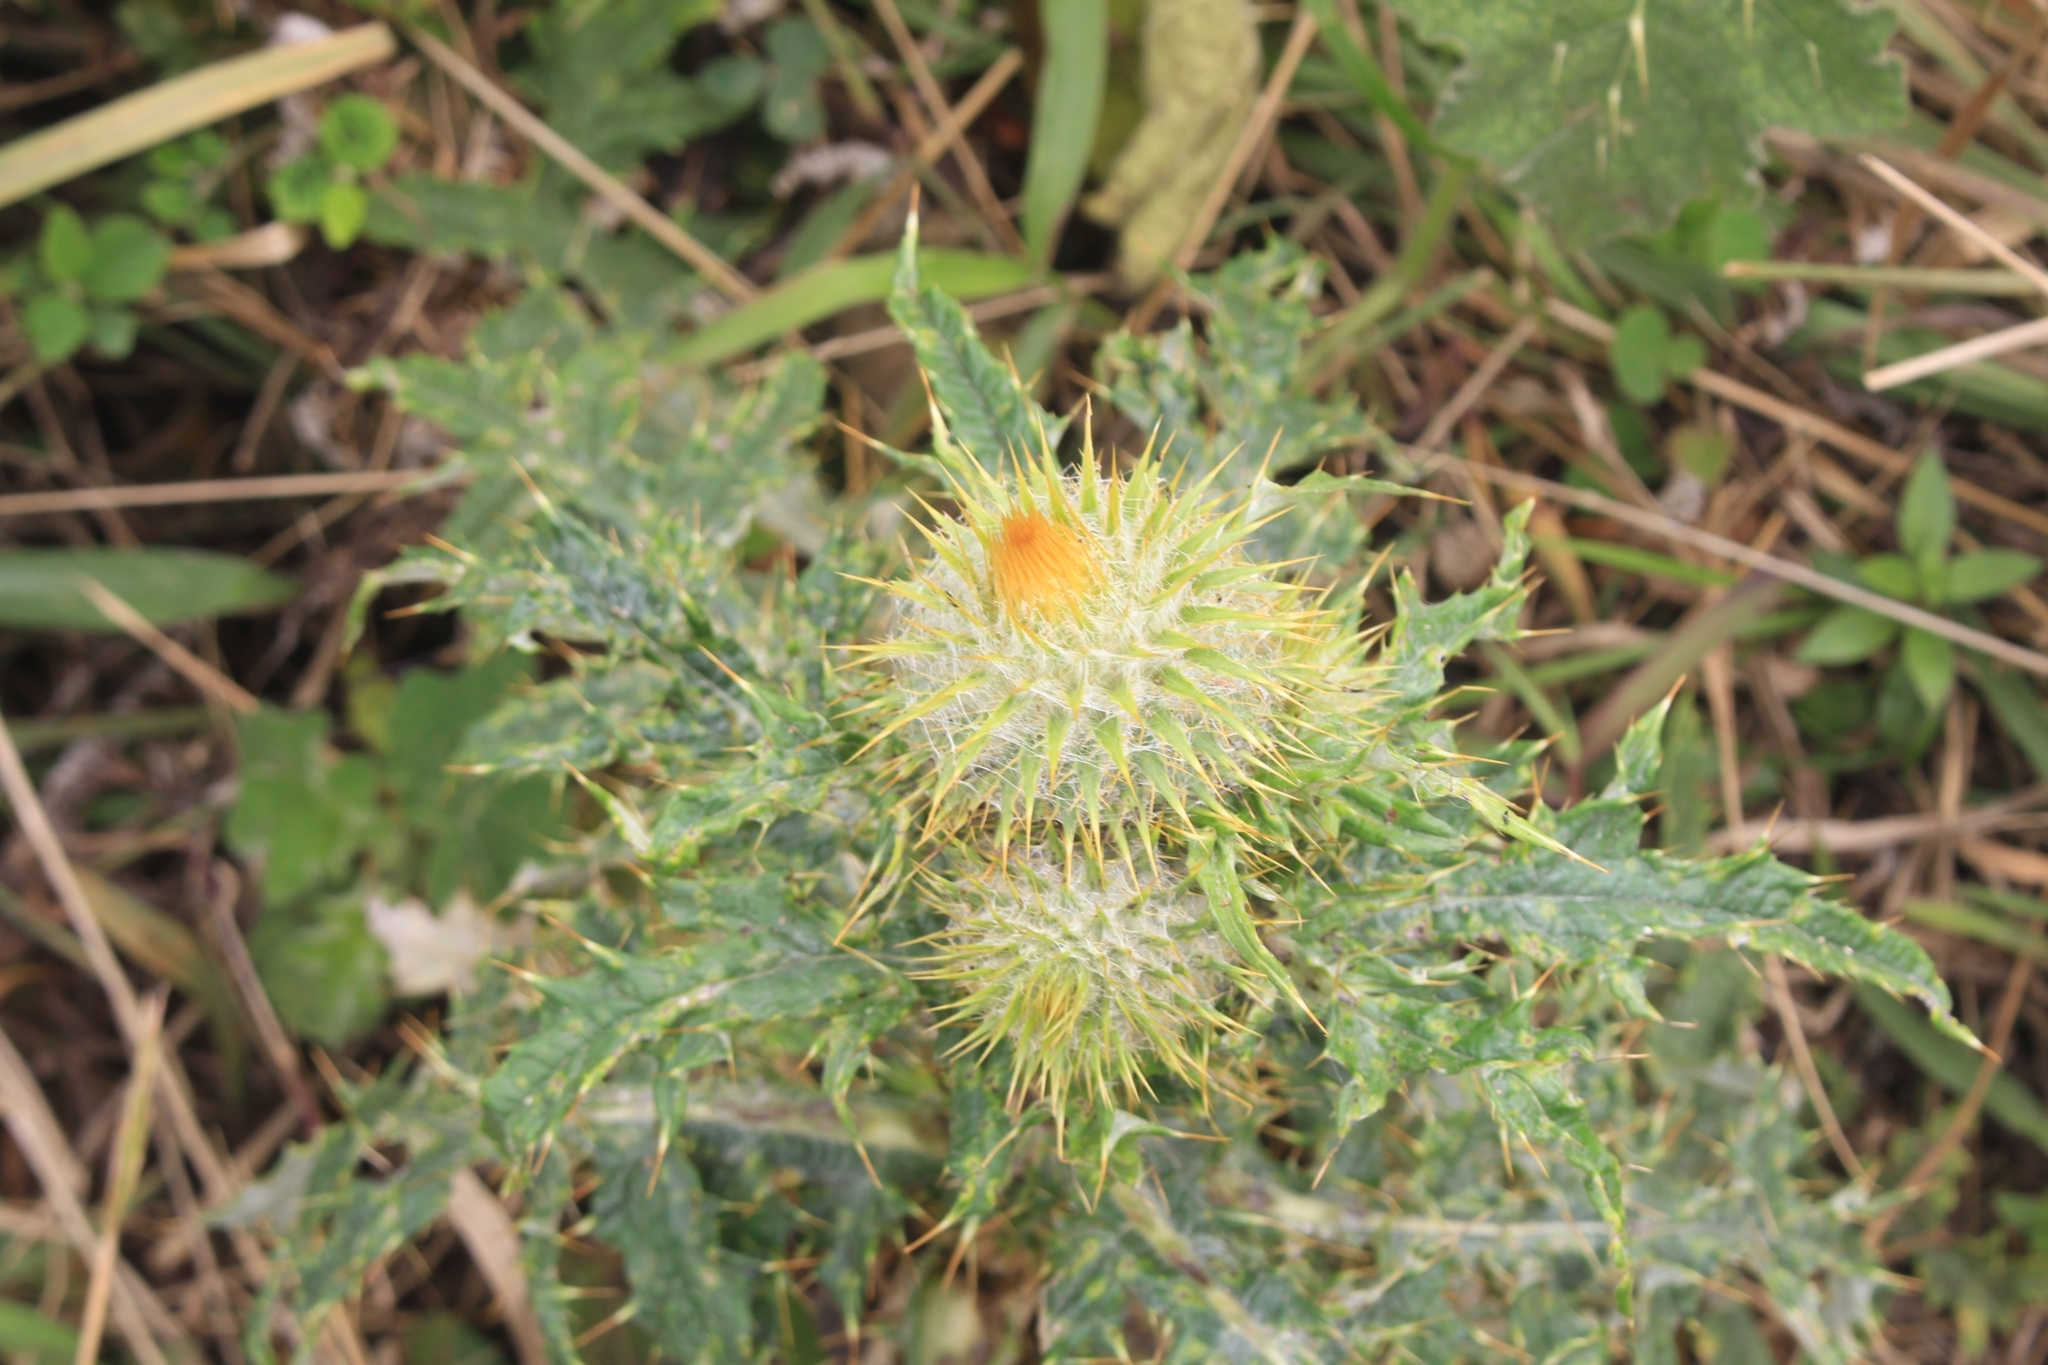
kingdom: Plantae
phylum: Tracheophyta
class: Magnoliopsida
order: Asterales
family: Asteraceae
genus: Cirsium
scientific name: Cirsium subcoriaceum
